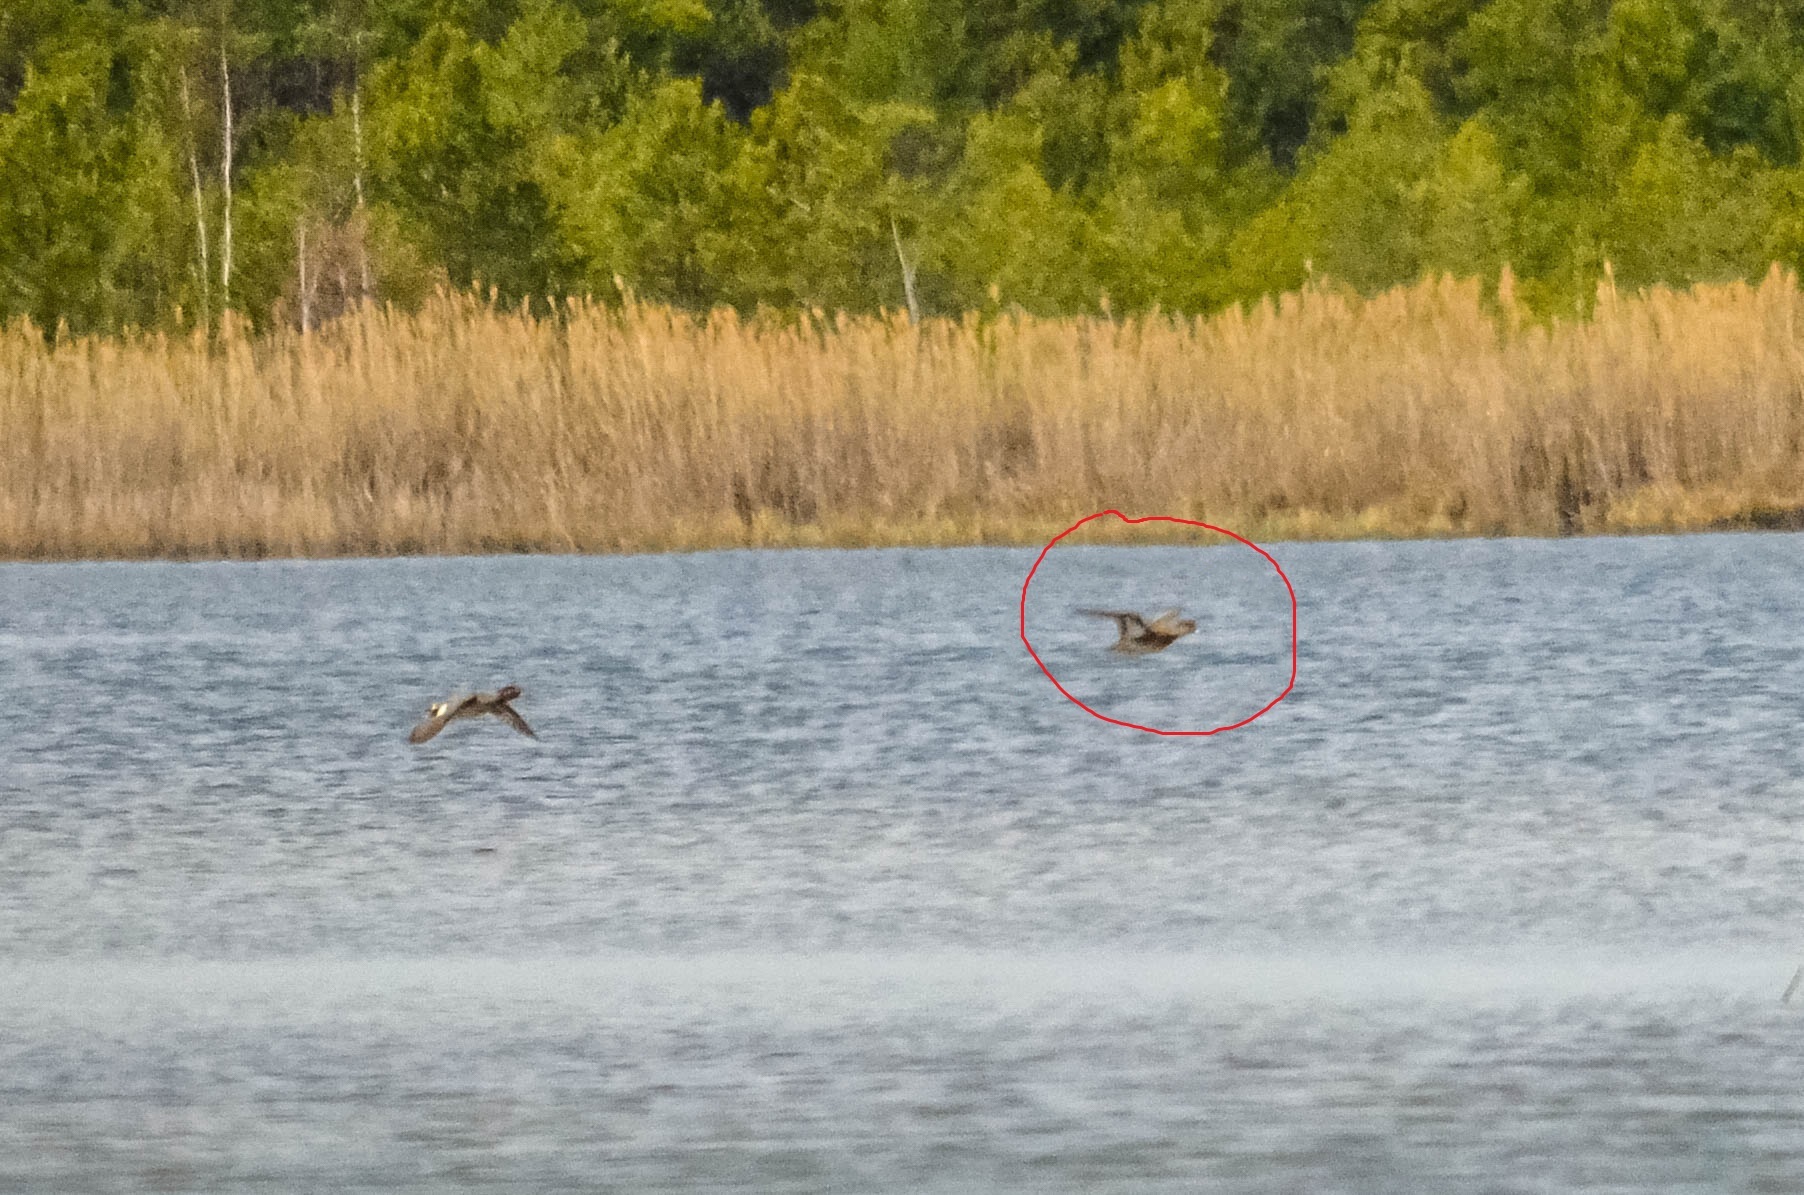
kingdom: Animalia
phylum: Chordata
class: Aves
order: Anseriformes
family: Anatidae
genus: Mareca
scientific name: Mareca penelope
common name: Eurasian wigeon
